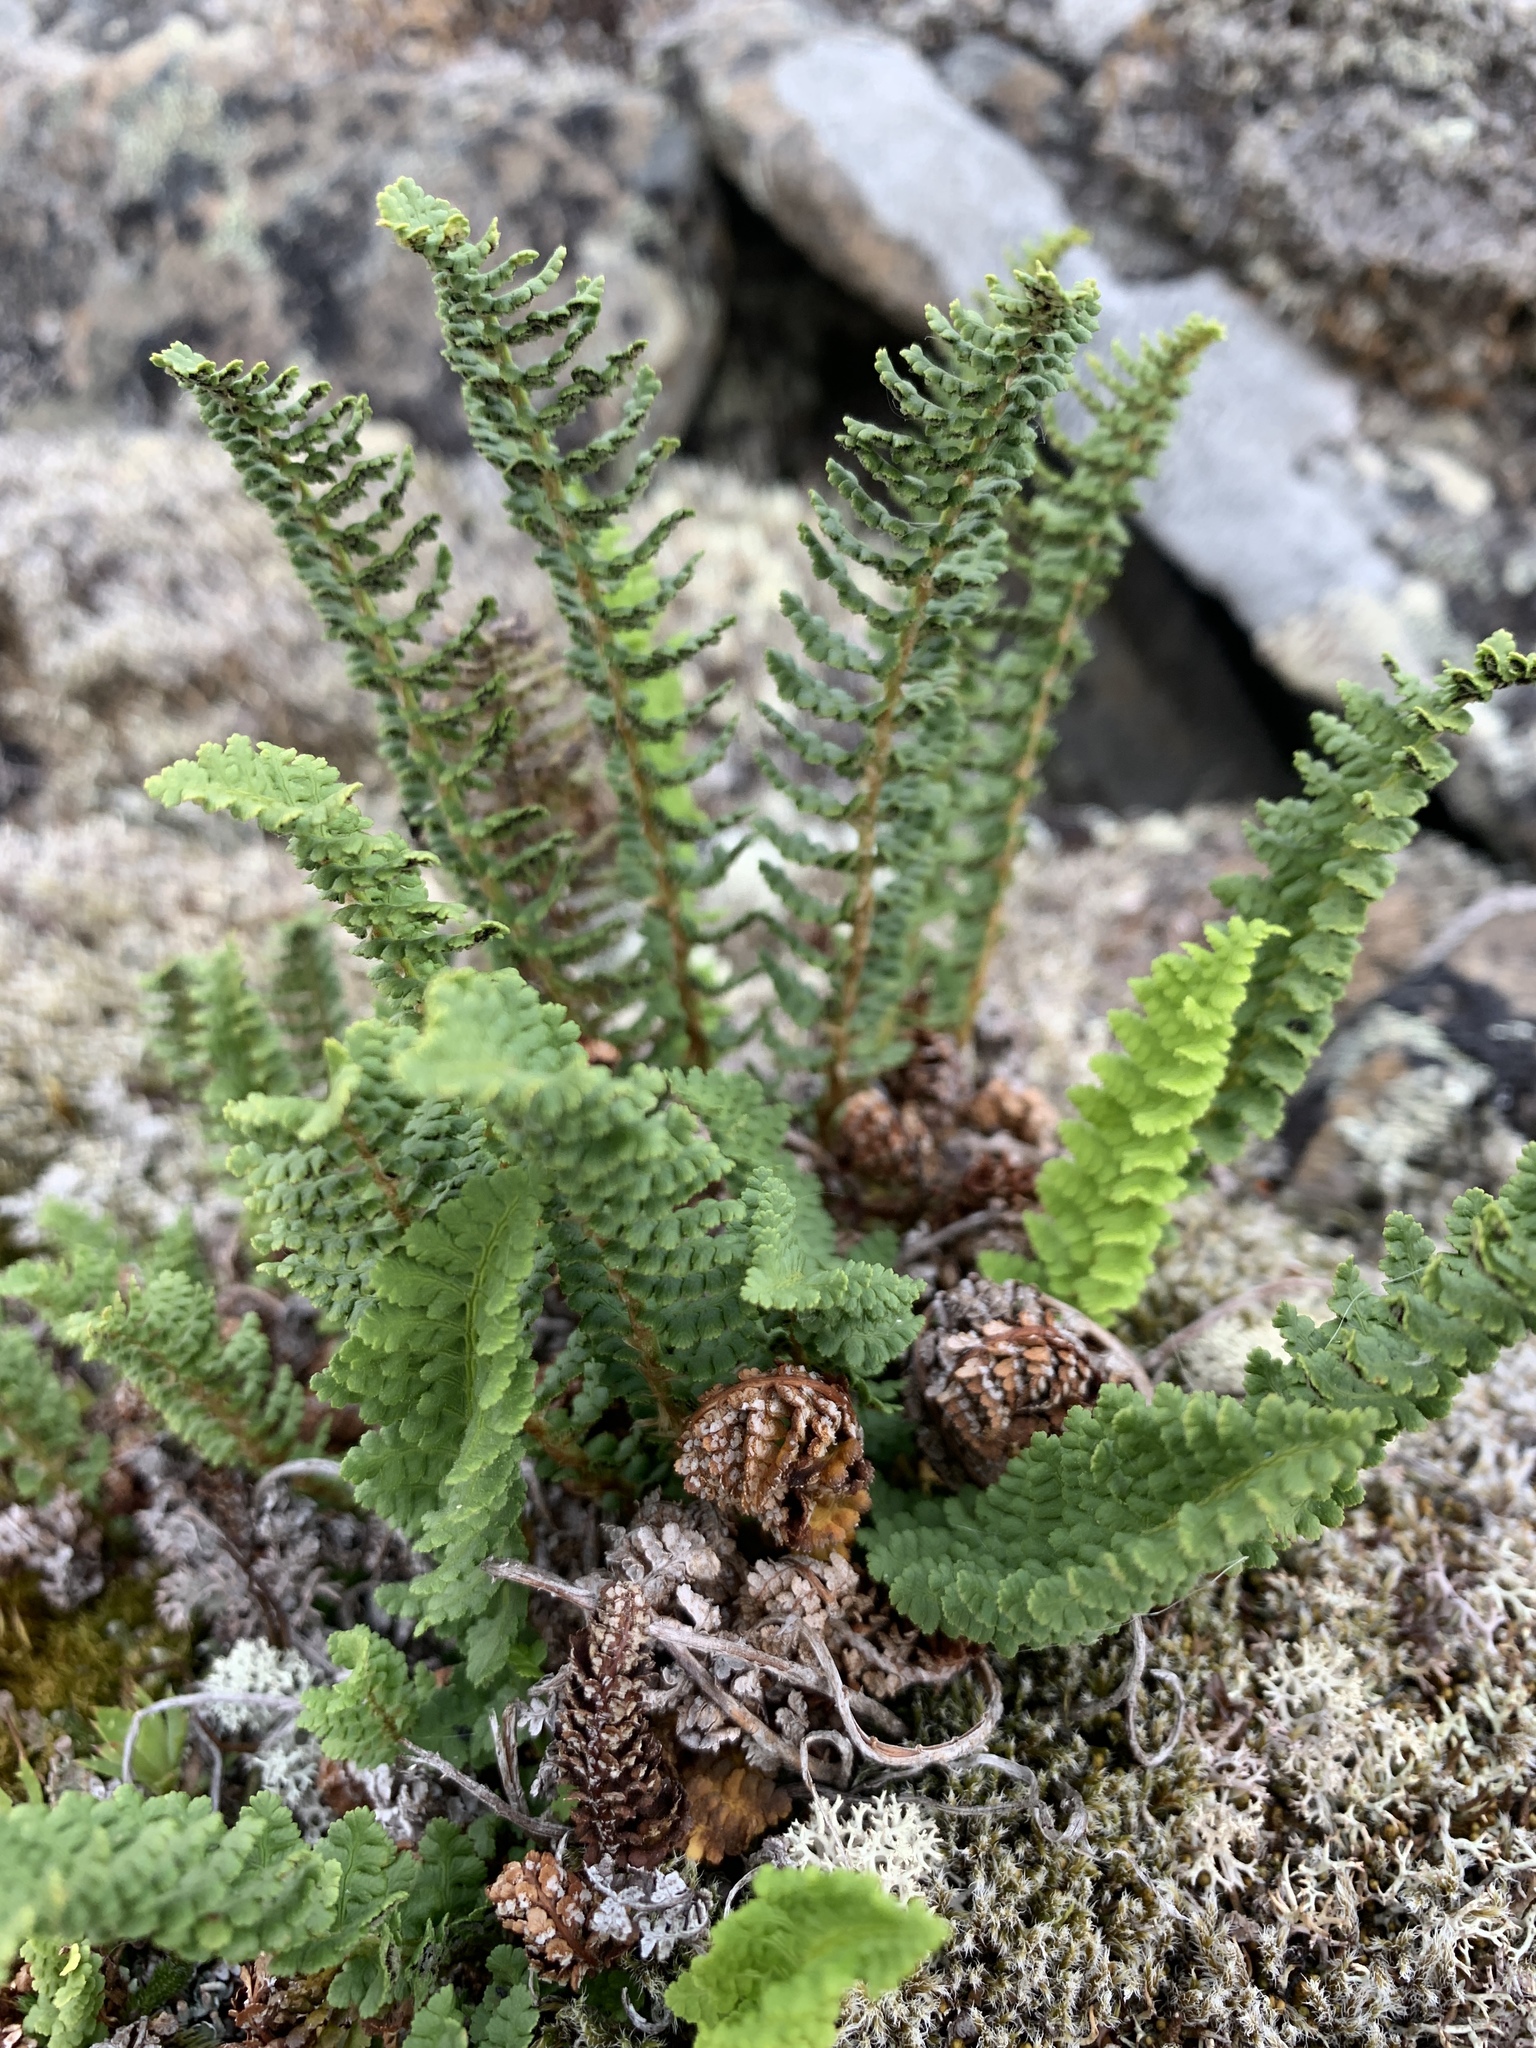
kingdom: Plantae
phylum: Tracheophyta
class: Polypodiopsida
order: Polypodiales
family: Dryopteridaceae
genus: Dryopteris
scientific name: Dryopteris fragrans
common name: Fragrant wood fern
